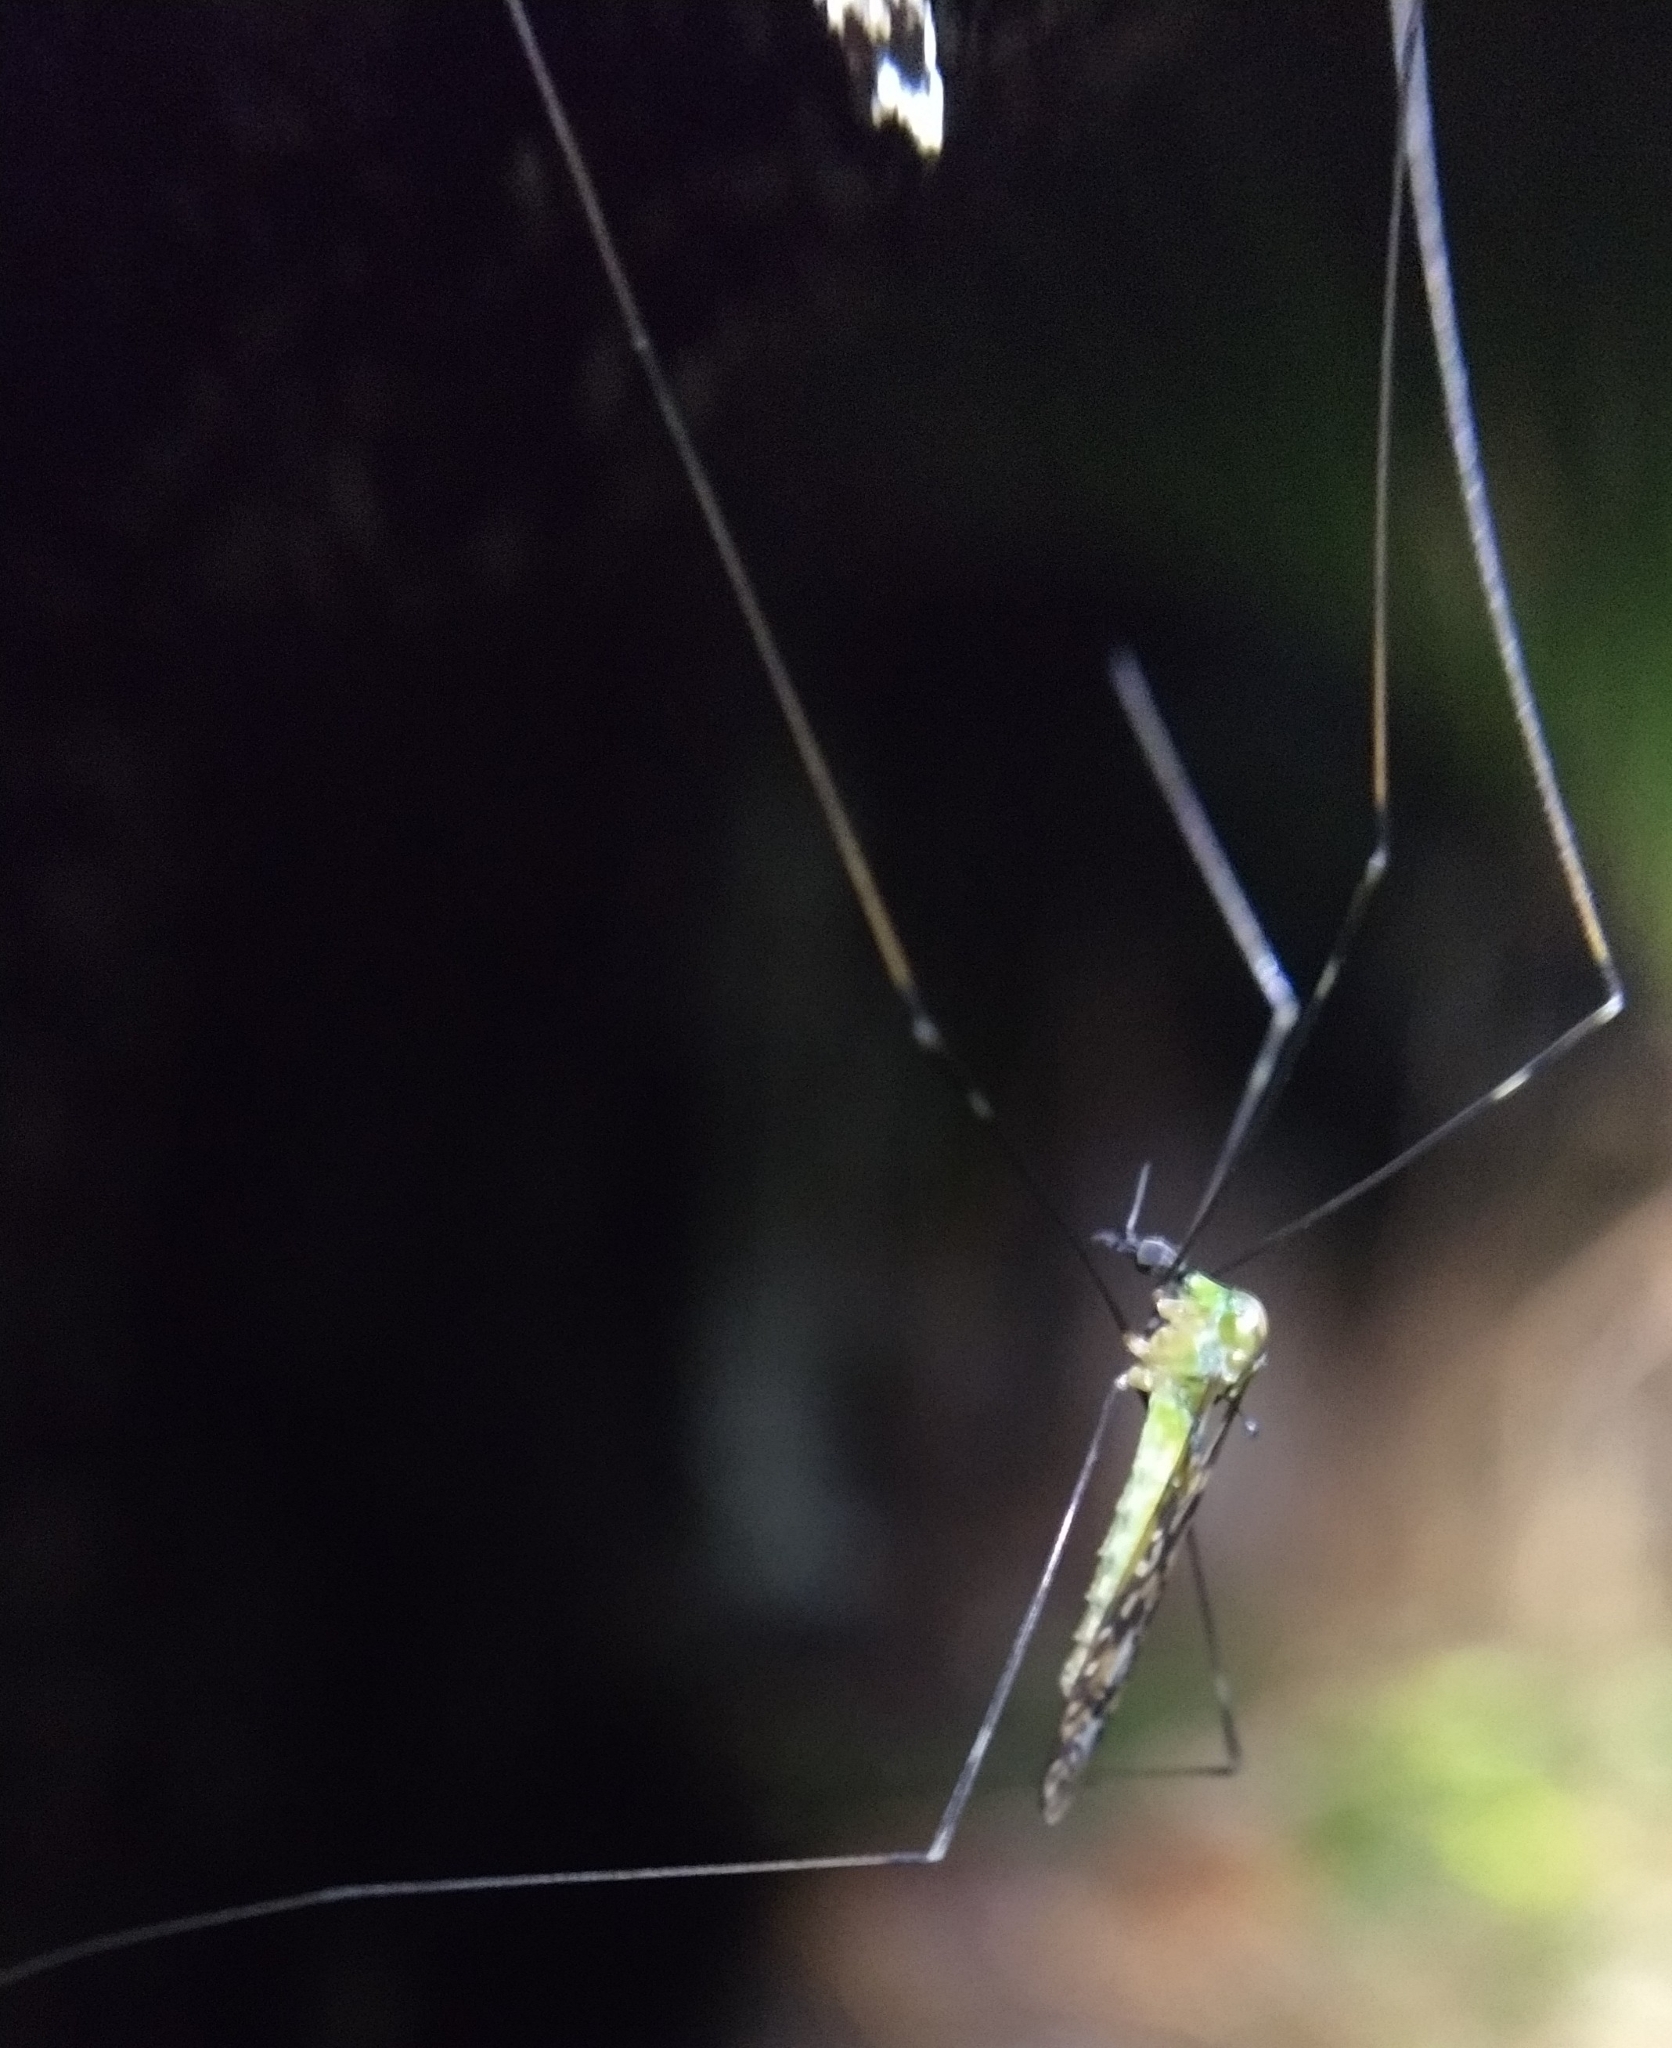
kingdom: Animalia
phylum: Arthropoda
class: Insecta
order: Diptera
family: Limoniidae
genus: Discobola
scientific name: Discobola dohrni
